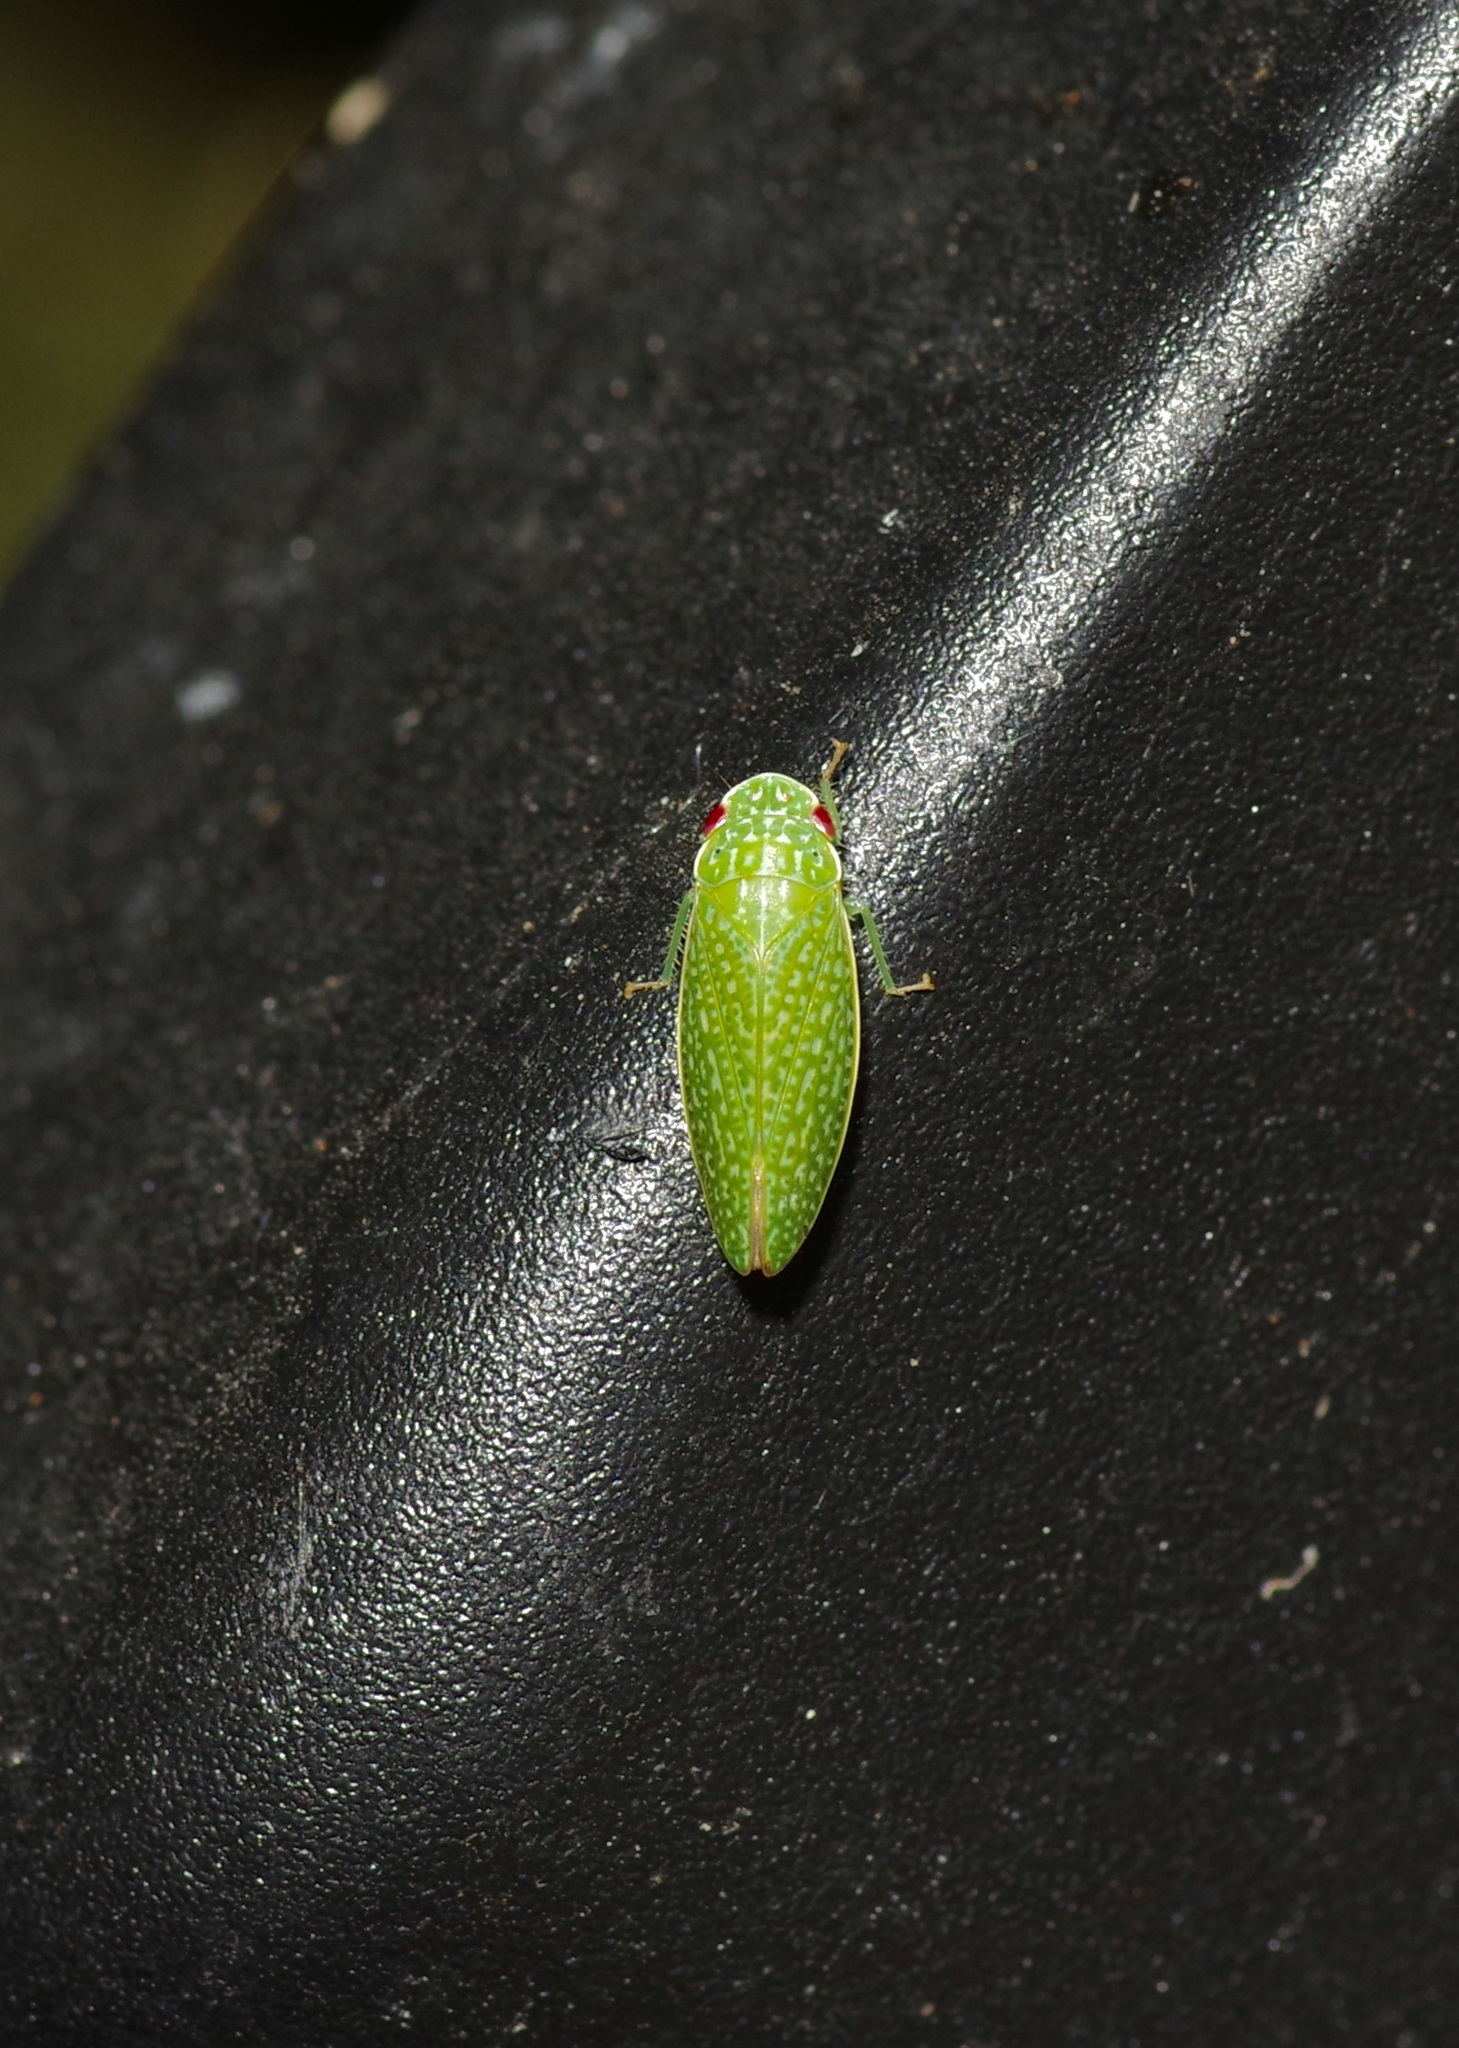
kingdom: Animalia
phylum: Arthropoda
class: Insecta
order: Hemiptera
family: Cicadellidae
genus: Rugosana
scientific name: Rugosana querci
